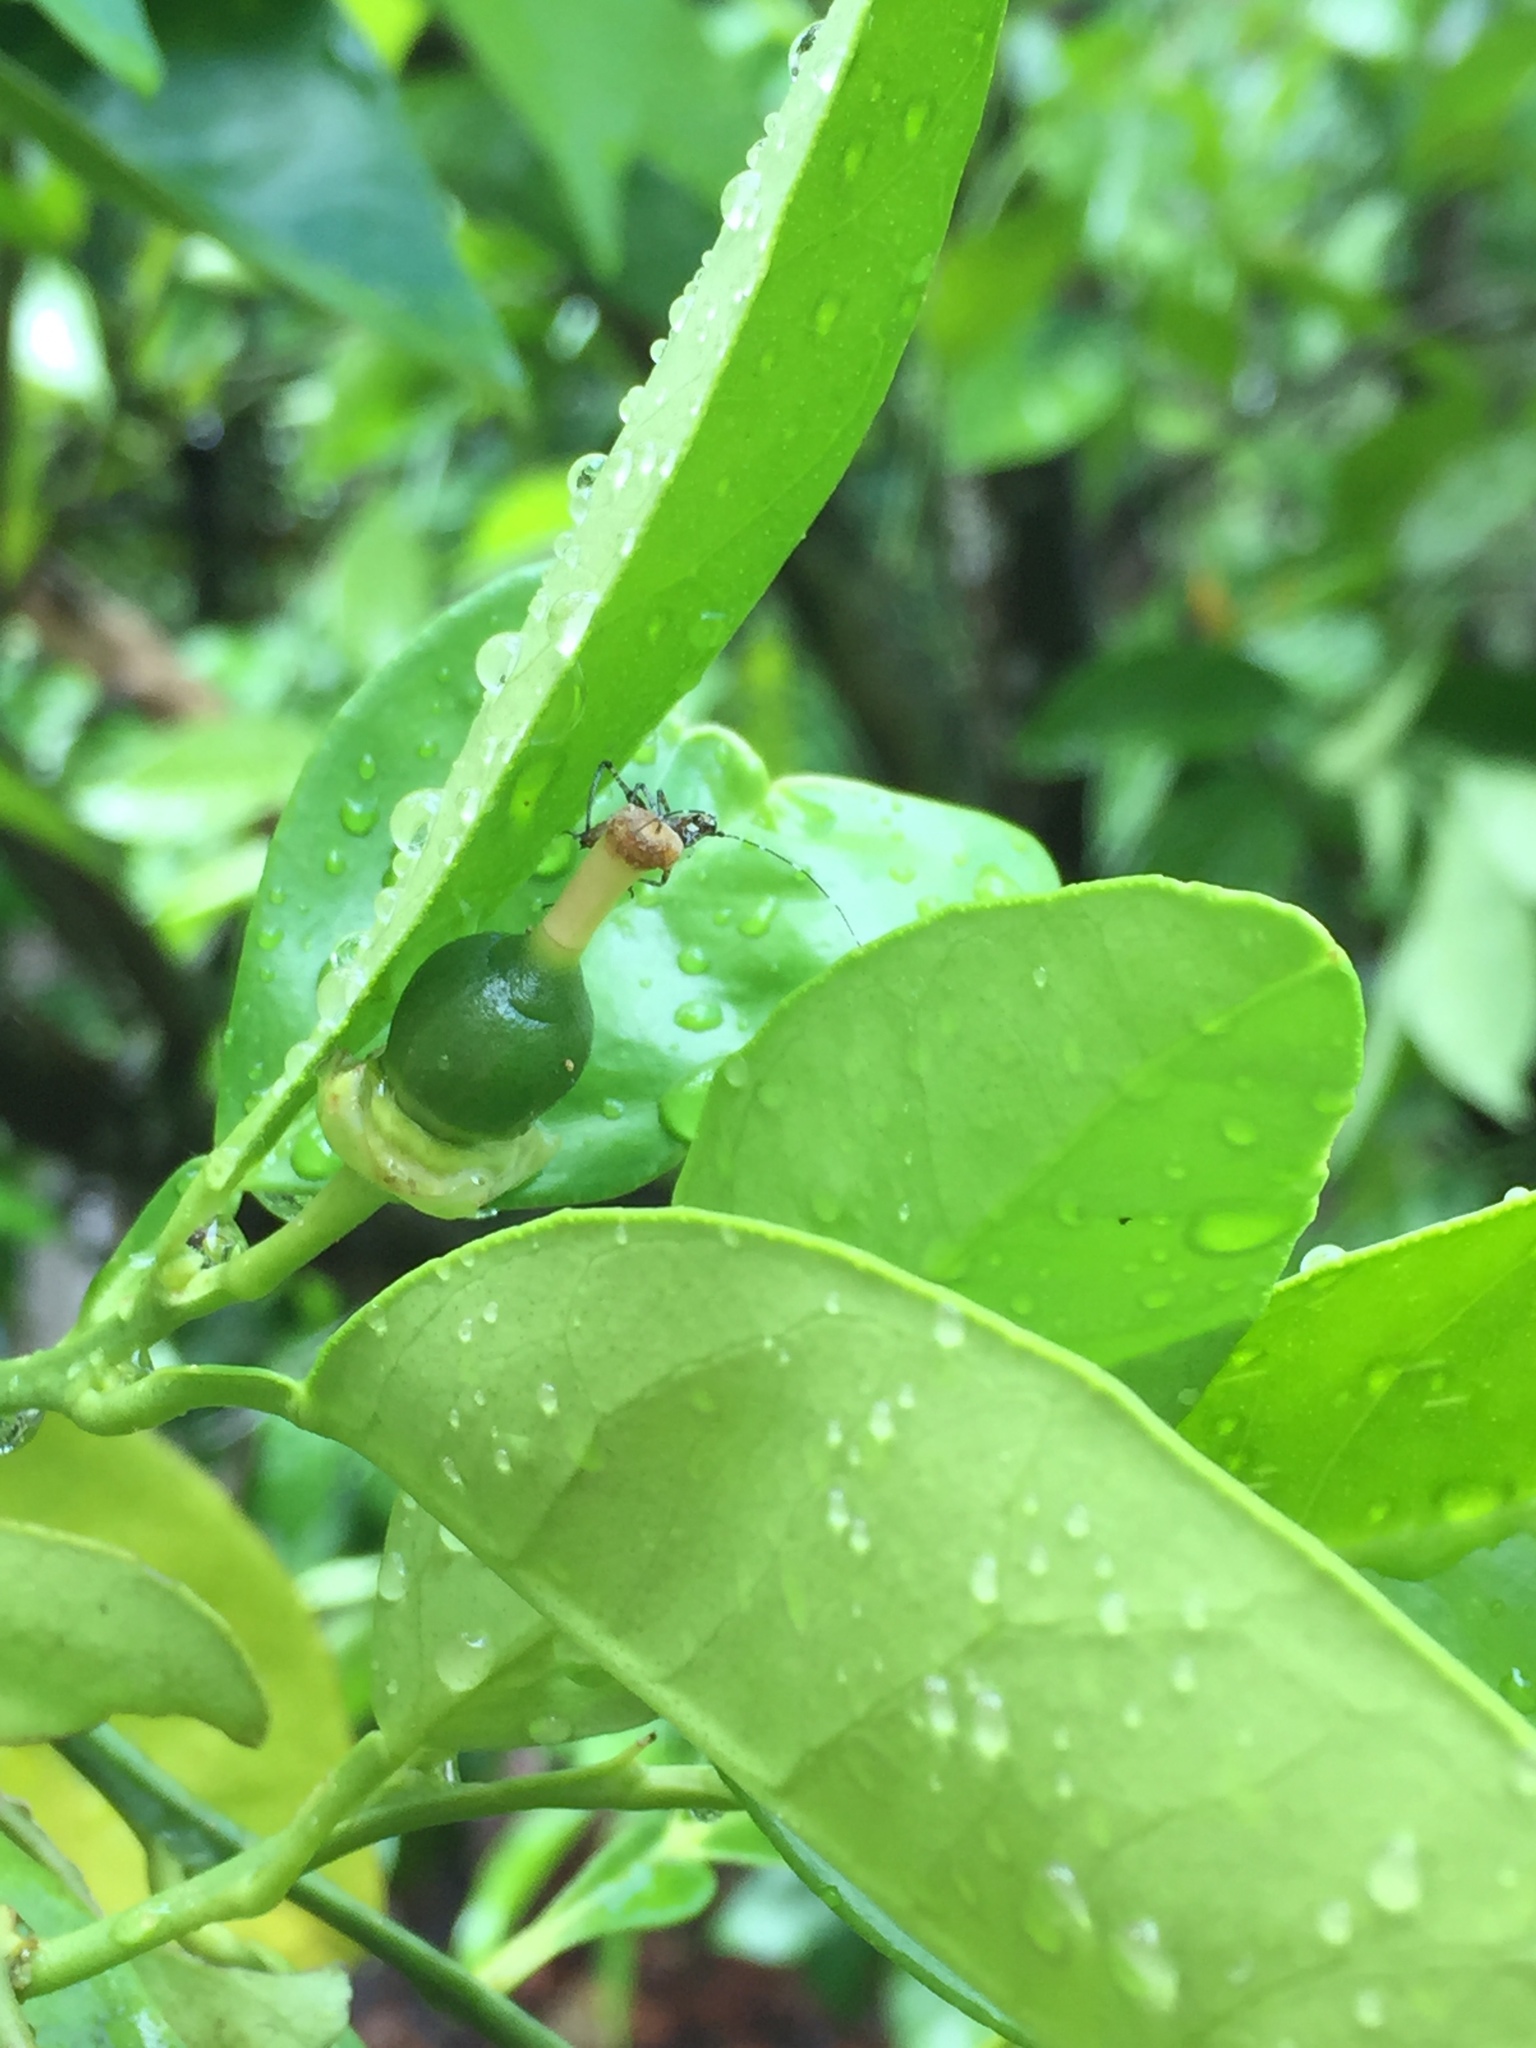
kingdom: Animalia
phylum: Arthropoda
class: Insecta
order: Orthoptera
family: Tettigoniidae
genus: Scudderia
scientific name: Scudderia furcata
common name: Fork-tailed bush katydid
